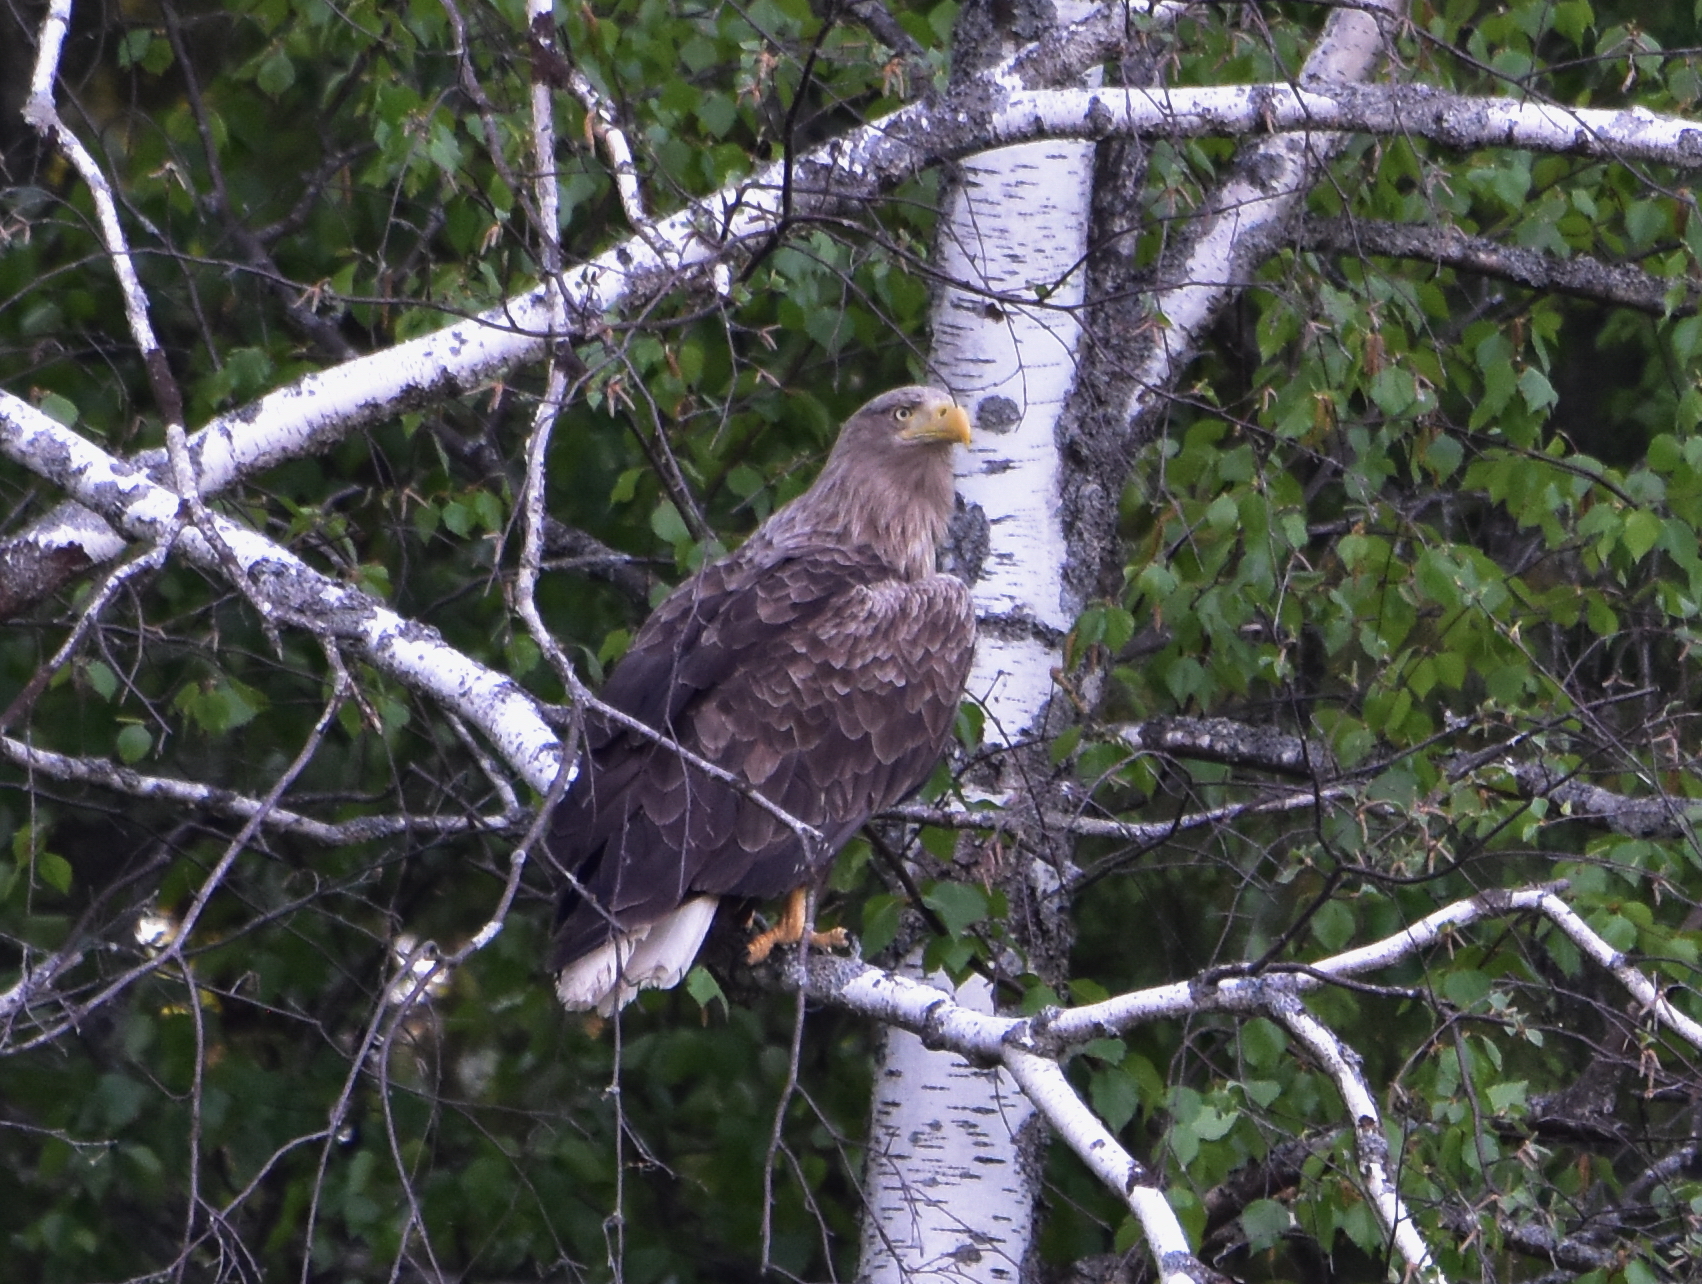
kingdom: Animalia
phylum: Chordata
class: Aves
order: Accipitriformes
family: Accipitridae
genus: Haliaeetus
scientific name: Haliaeetus albicilla
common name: White-tailed eagle
